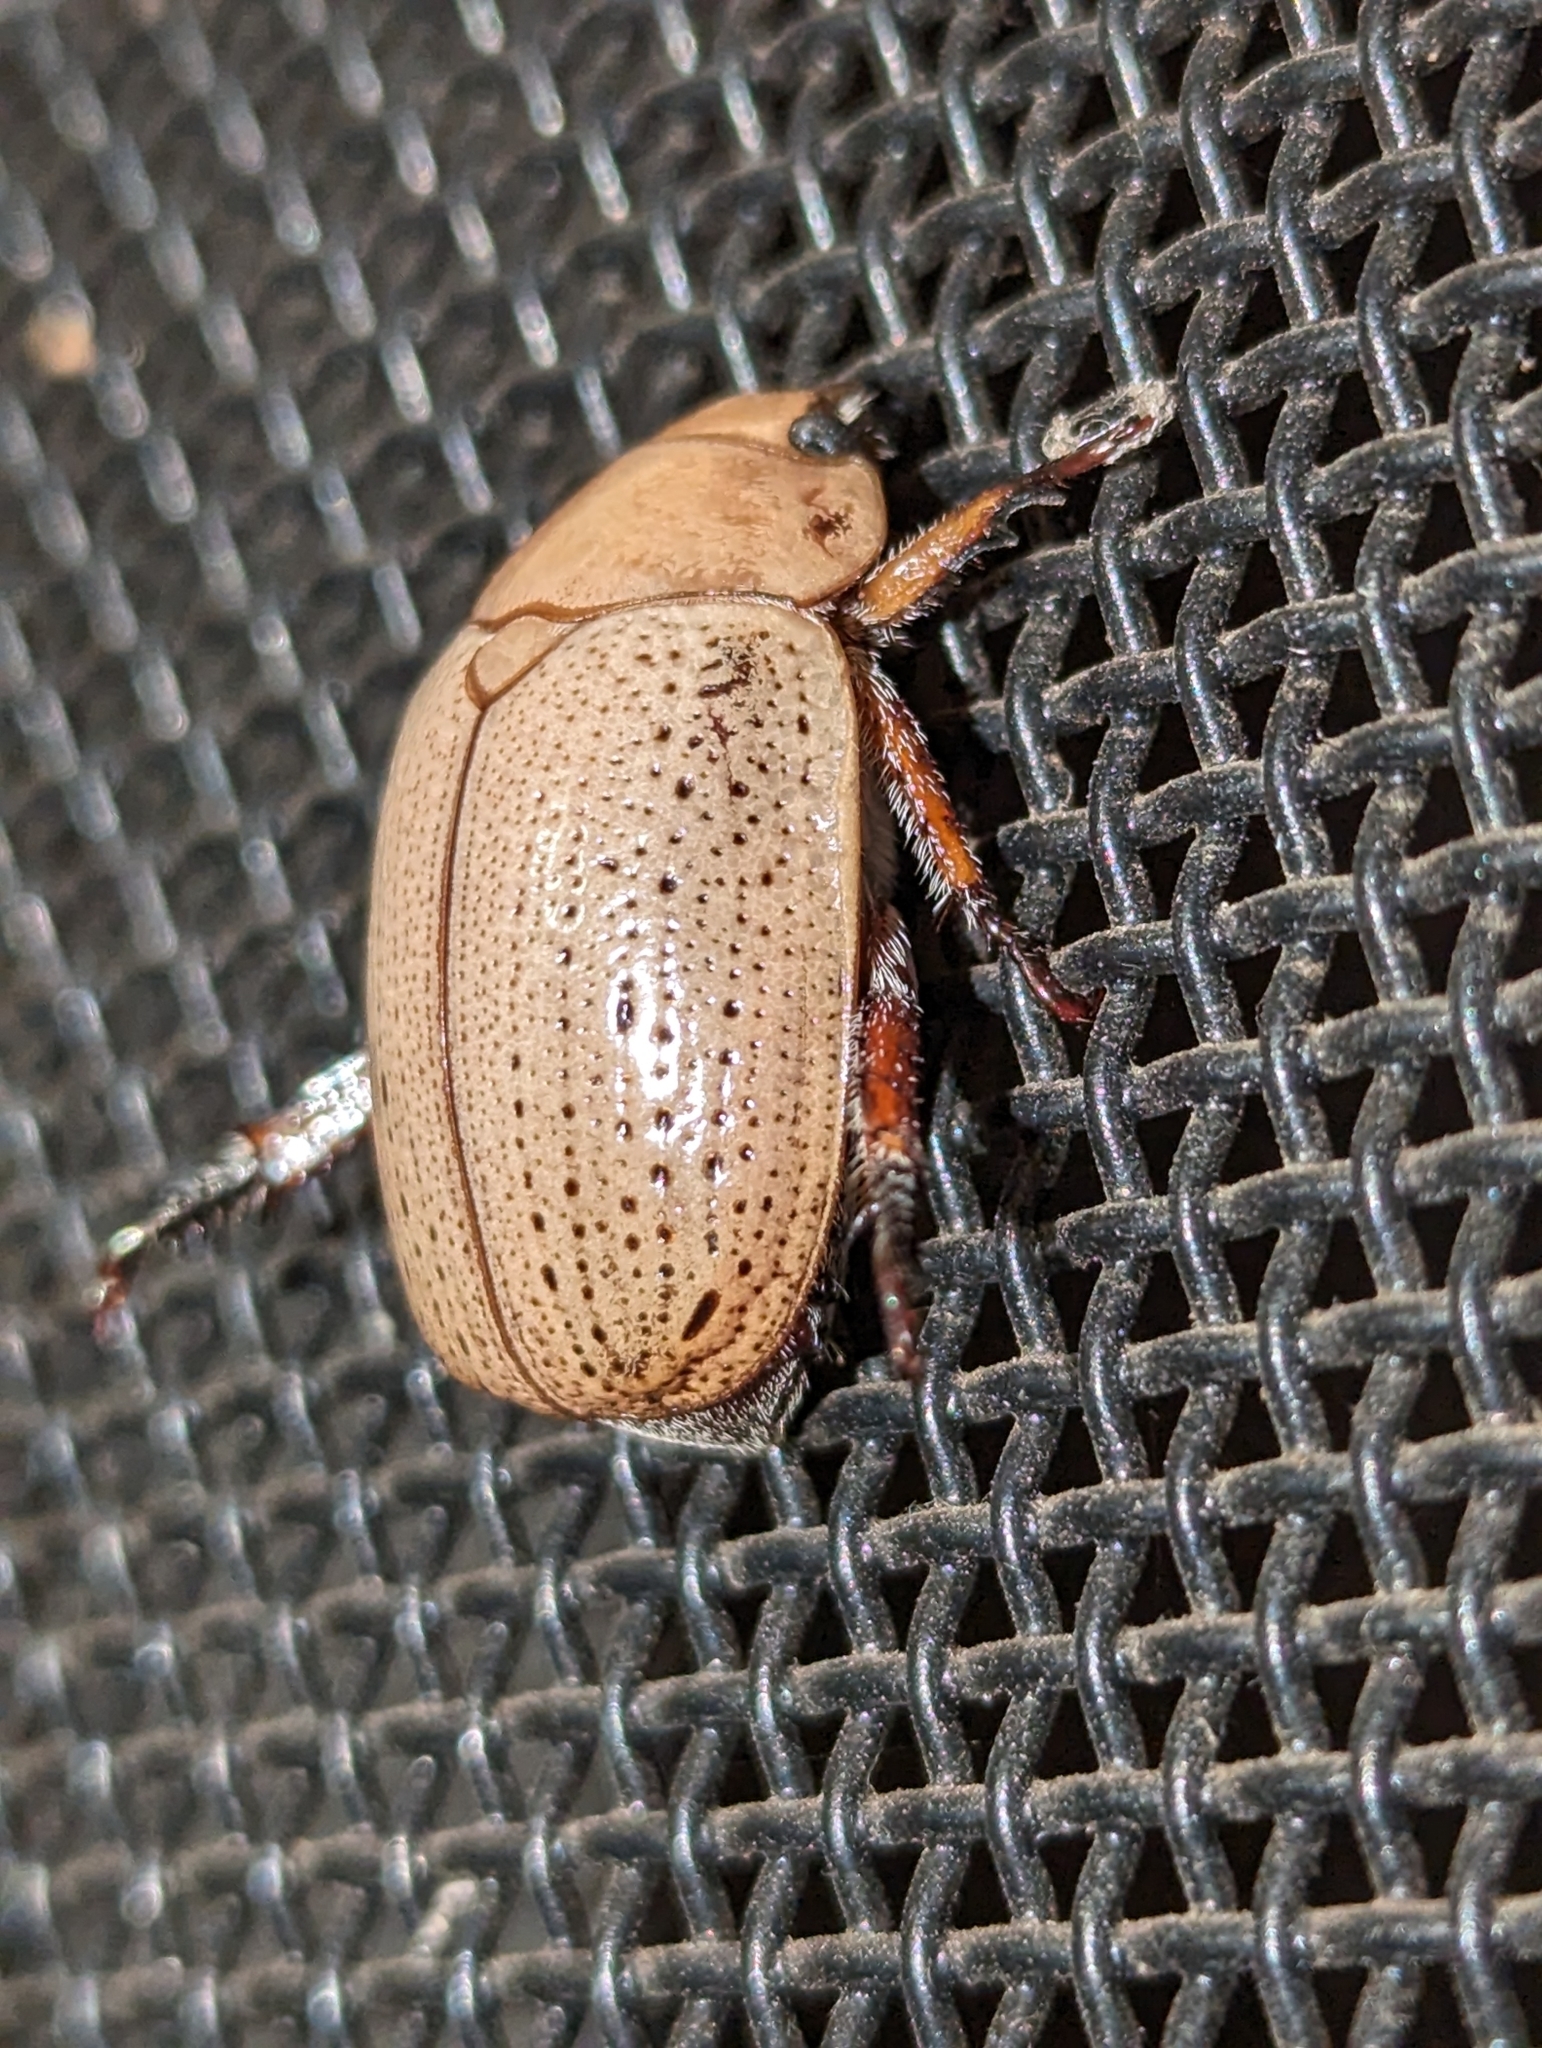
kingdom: Animalia
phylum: Arthropoda
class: Insecta
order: Coleoptera
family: Scarabaeidae
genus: Anoplognathus
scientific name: Anoplognathus pallidicollis
